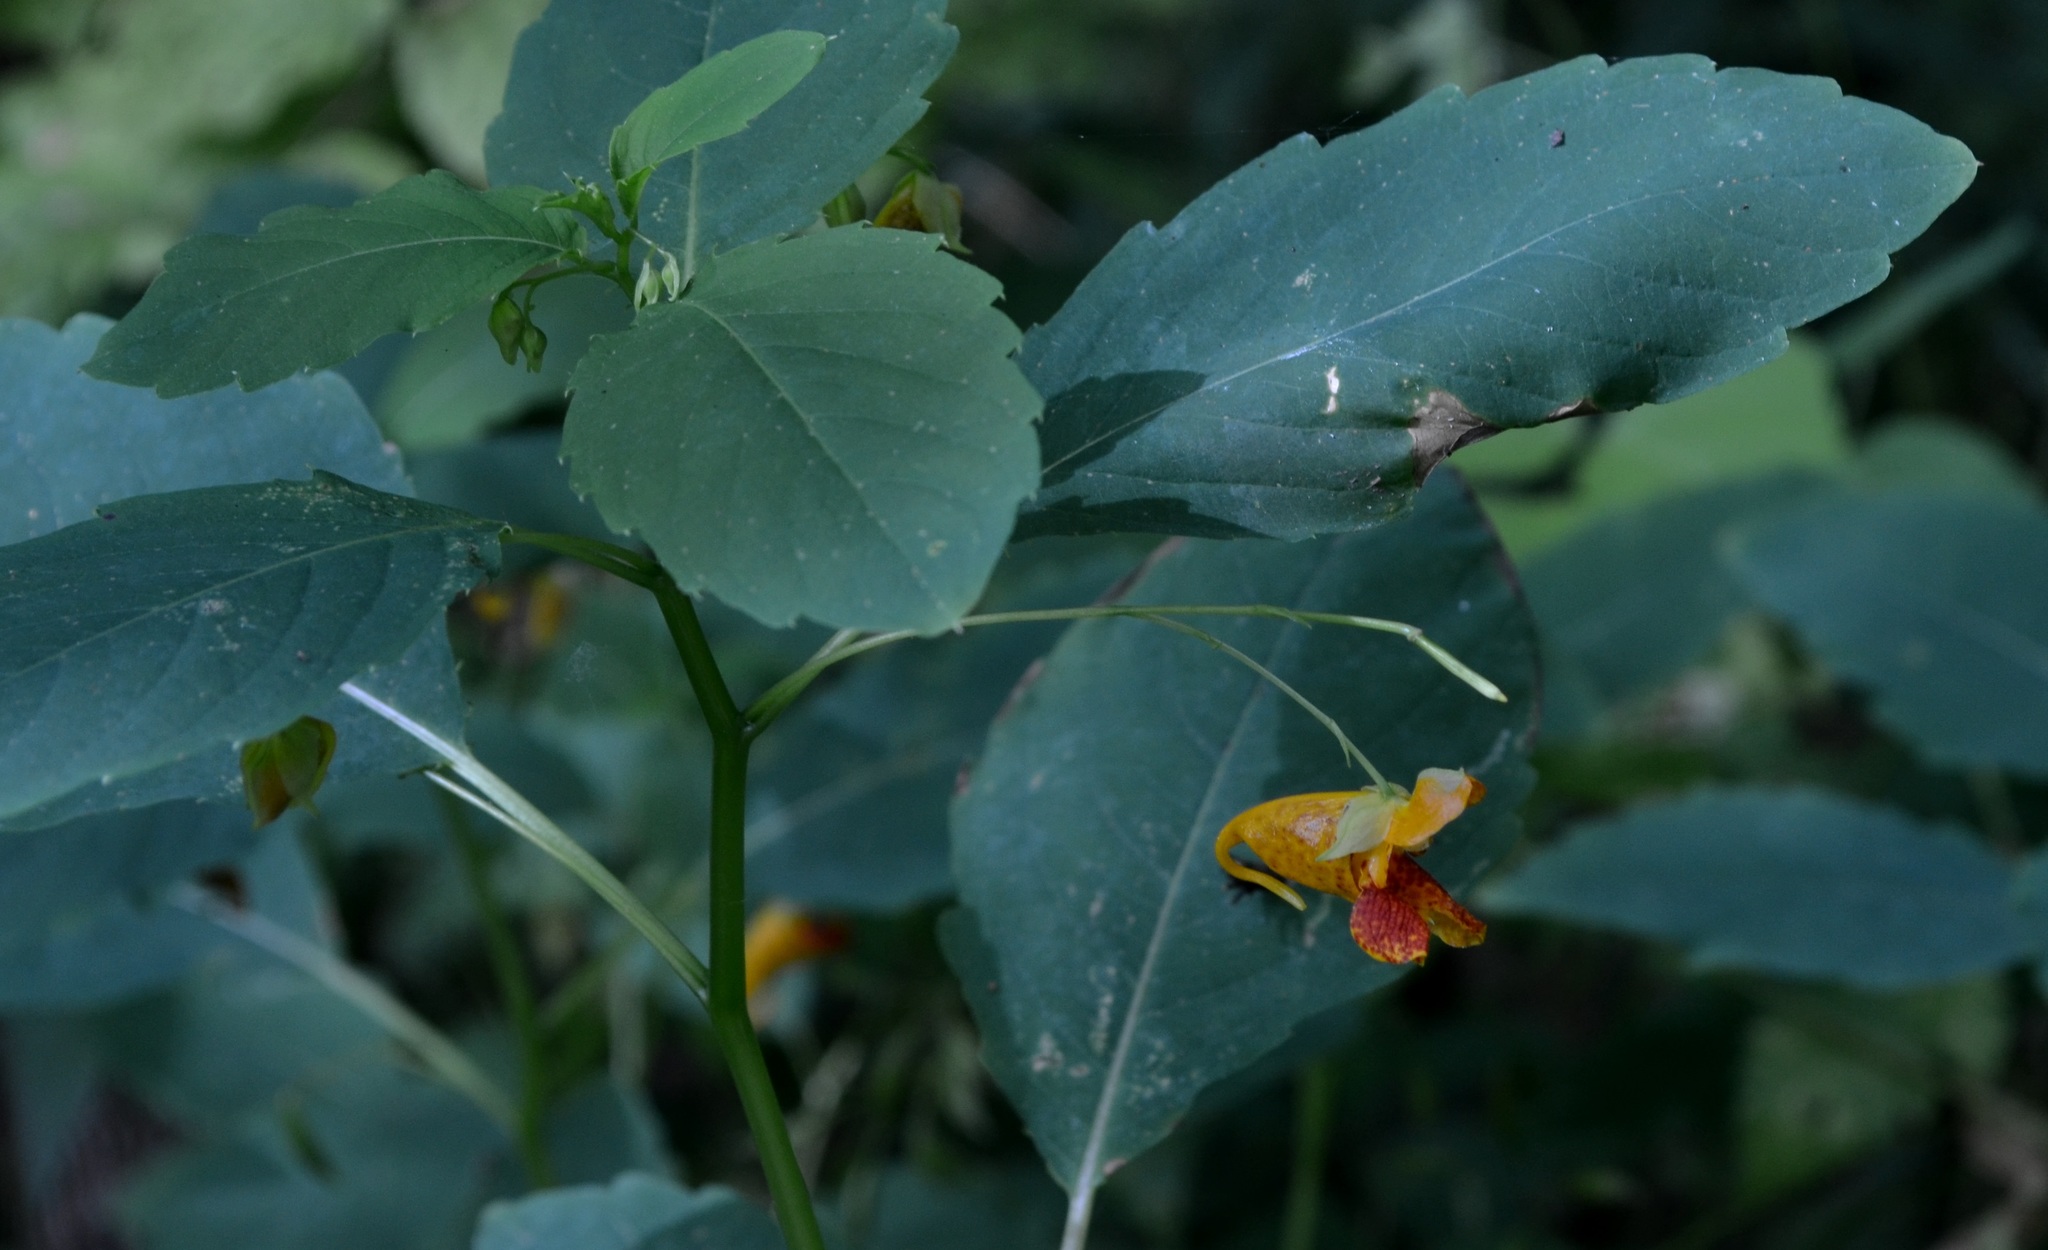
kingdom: Plantae
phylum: Tracheophyta
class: Magnoliopsida
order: Ericales
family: Balsaminaceae
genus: Impatiens
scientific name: Impatiens capensis
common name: Orange balsam
